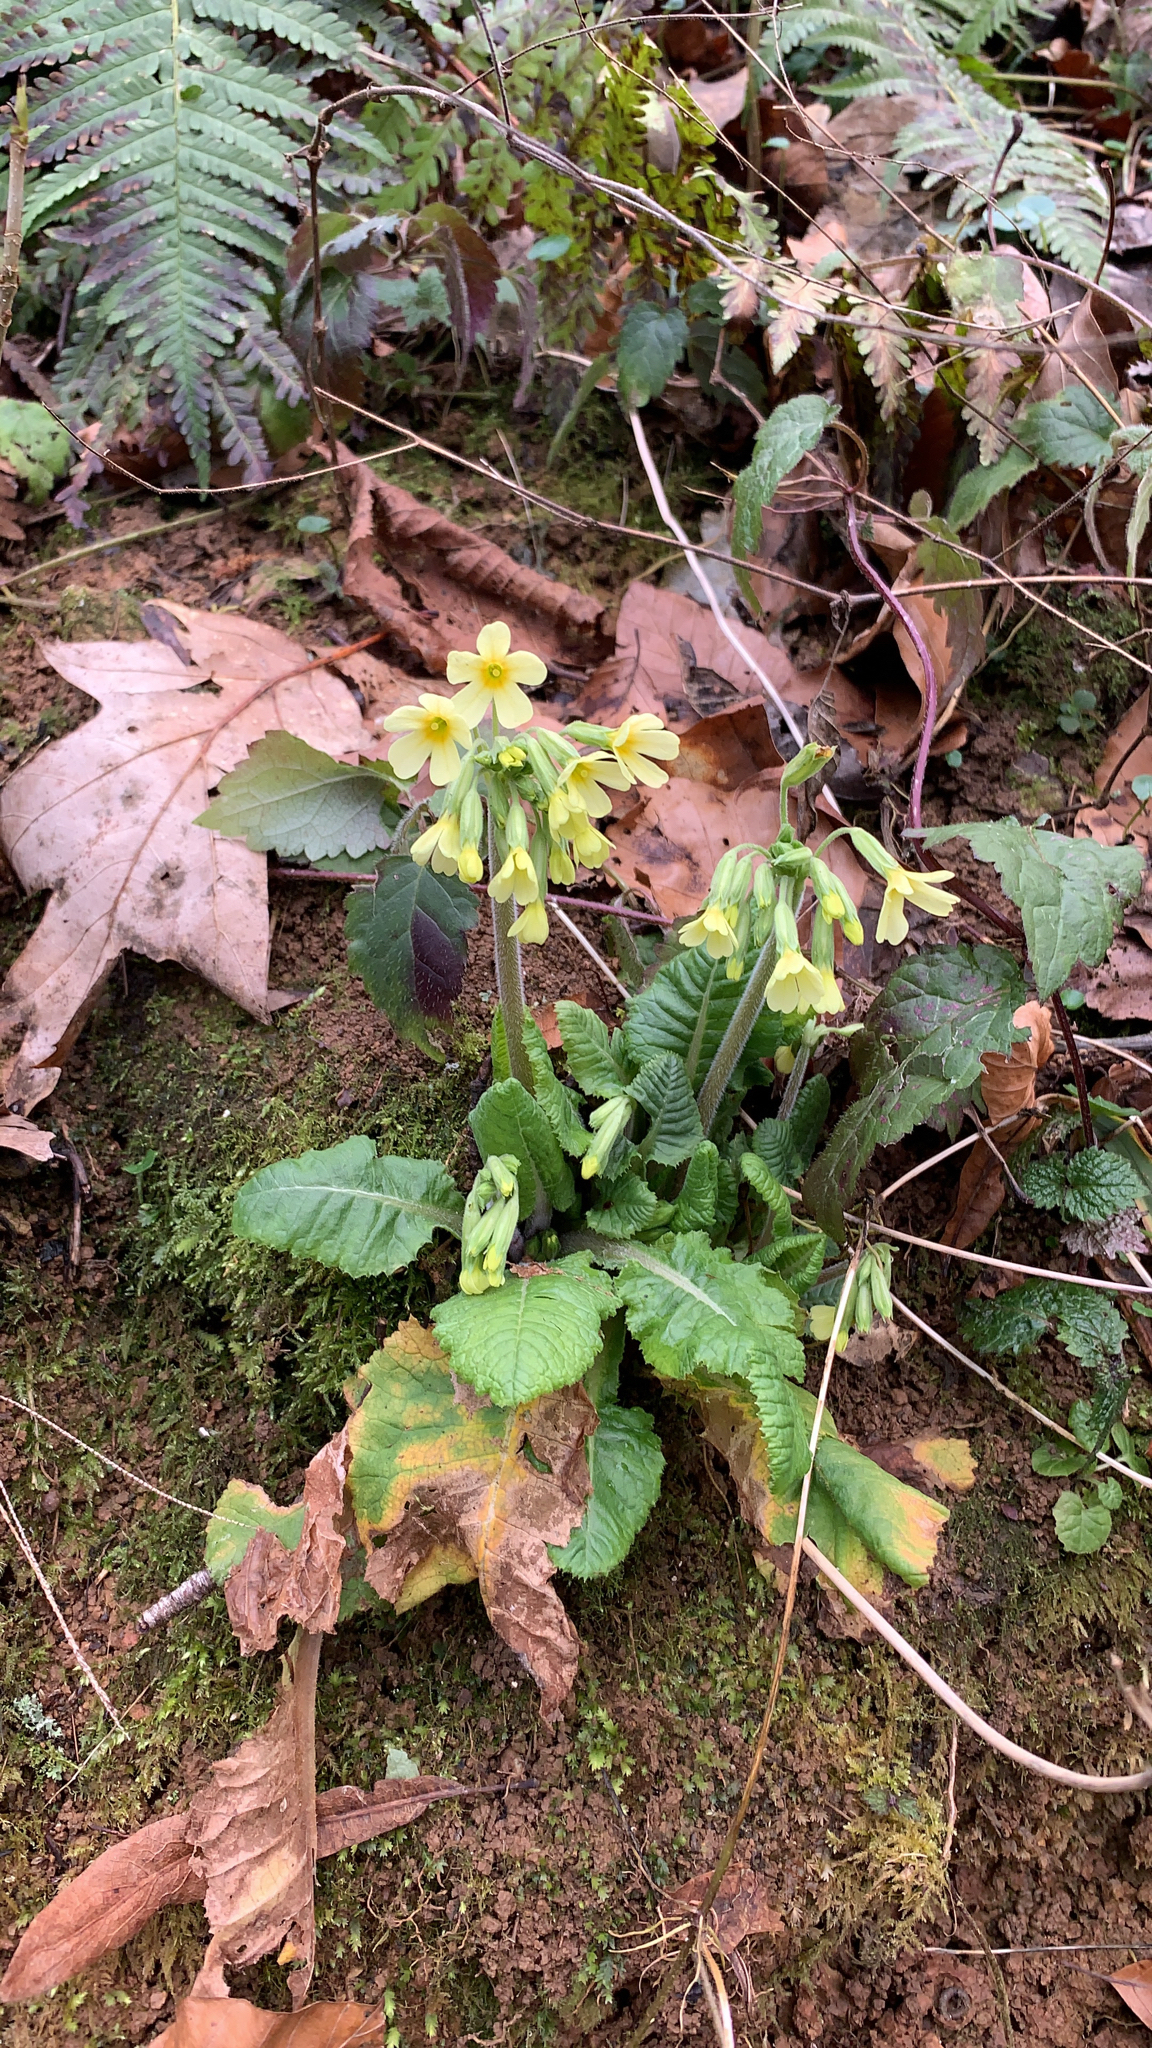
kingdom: Plantae
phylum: Tracheophyta
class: Magnoliopsida
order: Ericales
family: Primulaceae
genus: Primula
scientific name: Primula elatior
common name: Oxlip
